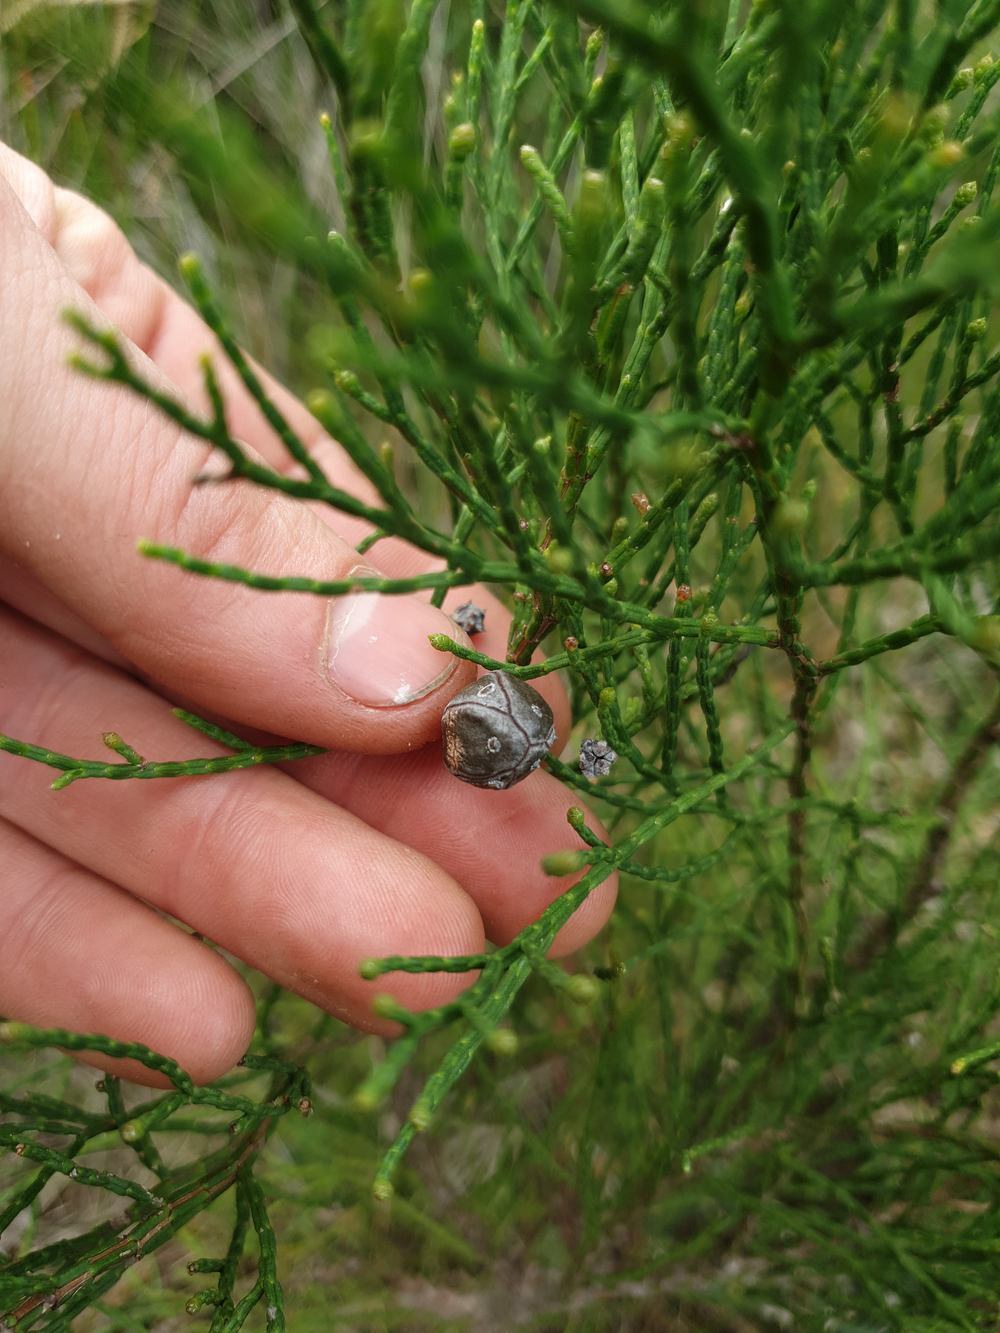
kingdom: Plantae
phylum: Tracheophyta
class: Pinopsida
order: Pinales
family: Cupressaceae
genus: Callitris
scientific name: Callitris roei
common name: Roe's cypress-pine
